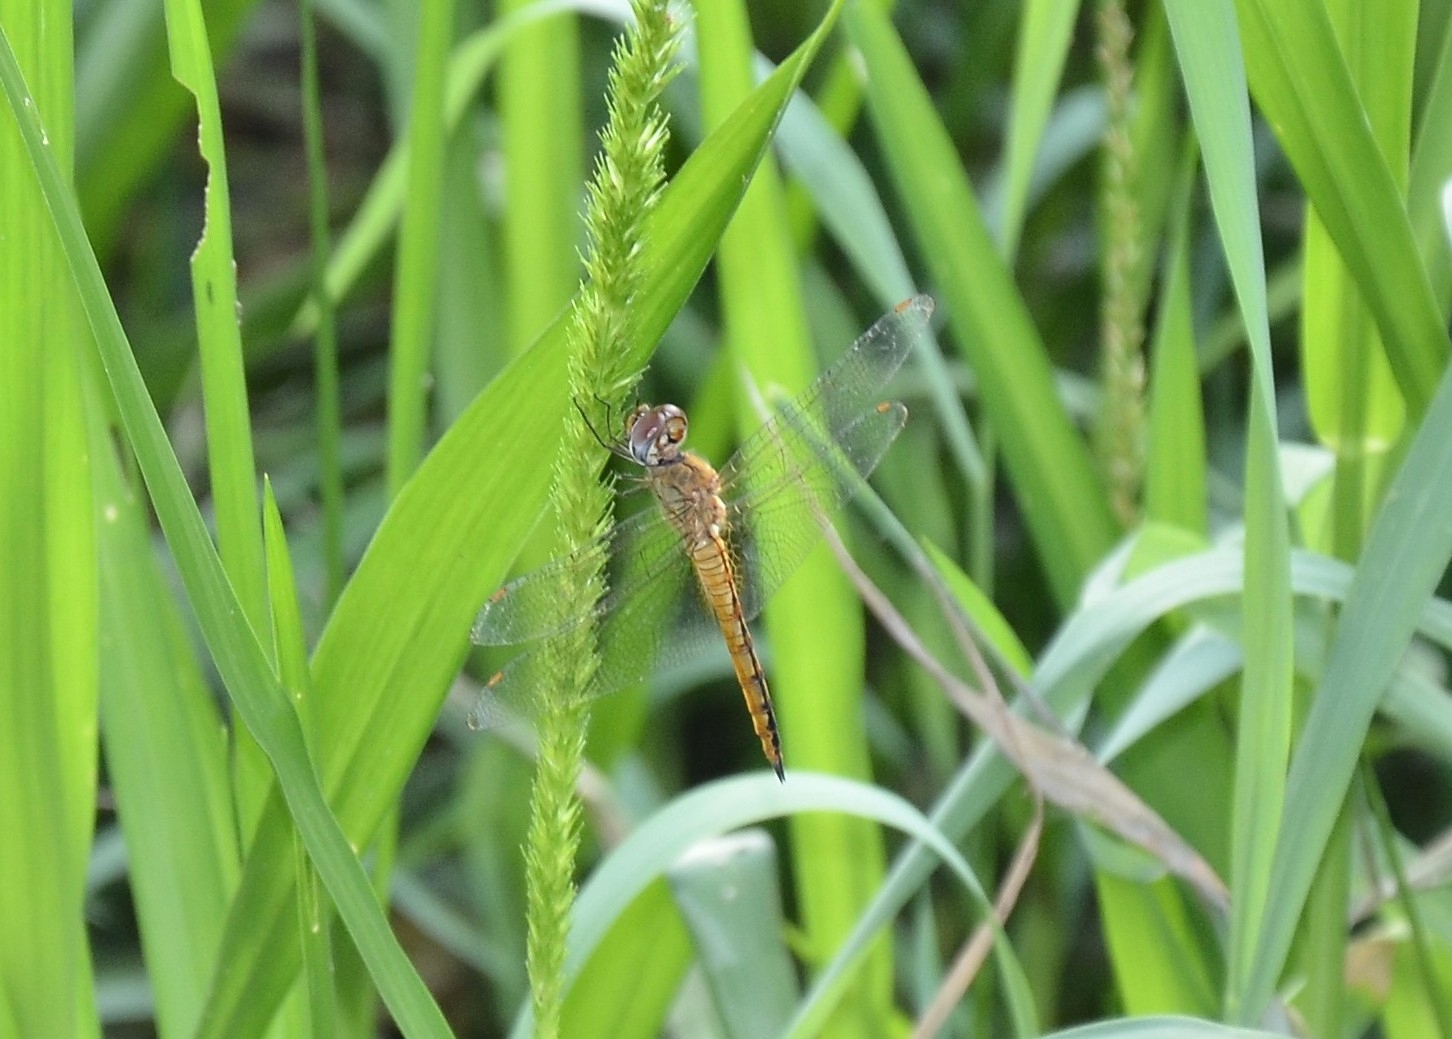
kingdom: Animalia
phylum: Arthropoda
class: Insecta
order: Odonata
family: Libellulidae
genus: Pantala
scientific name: Pantala flavescens
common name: Wandering glider
